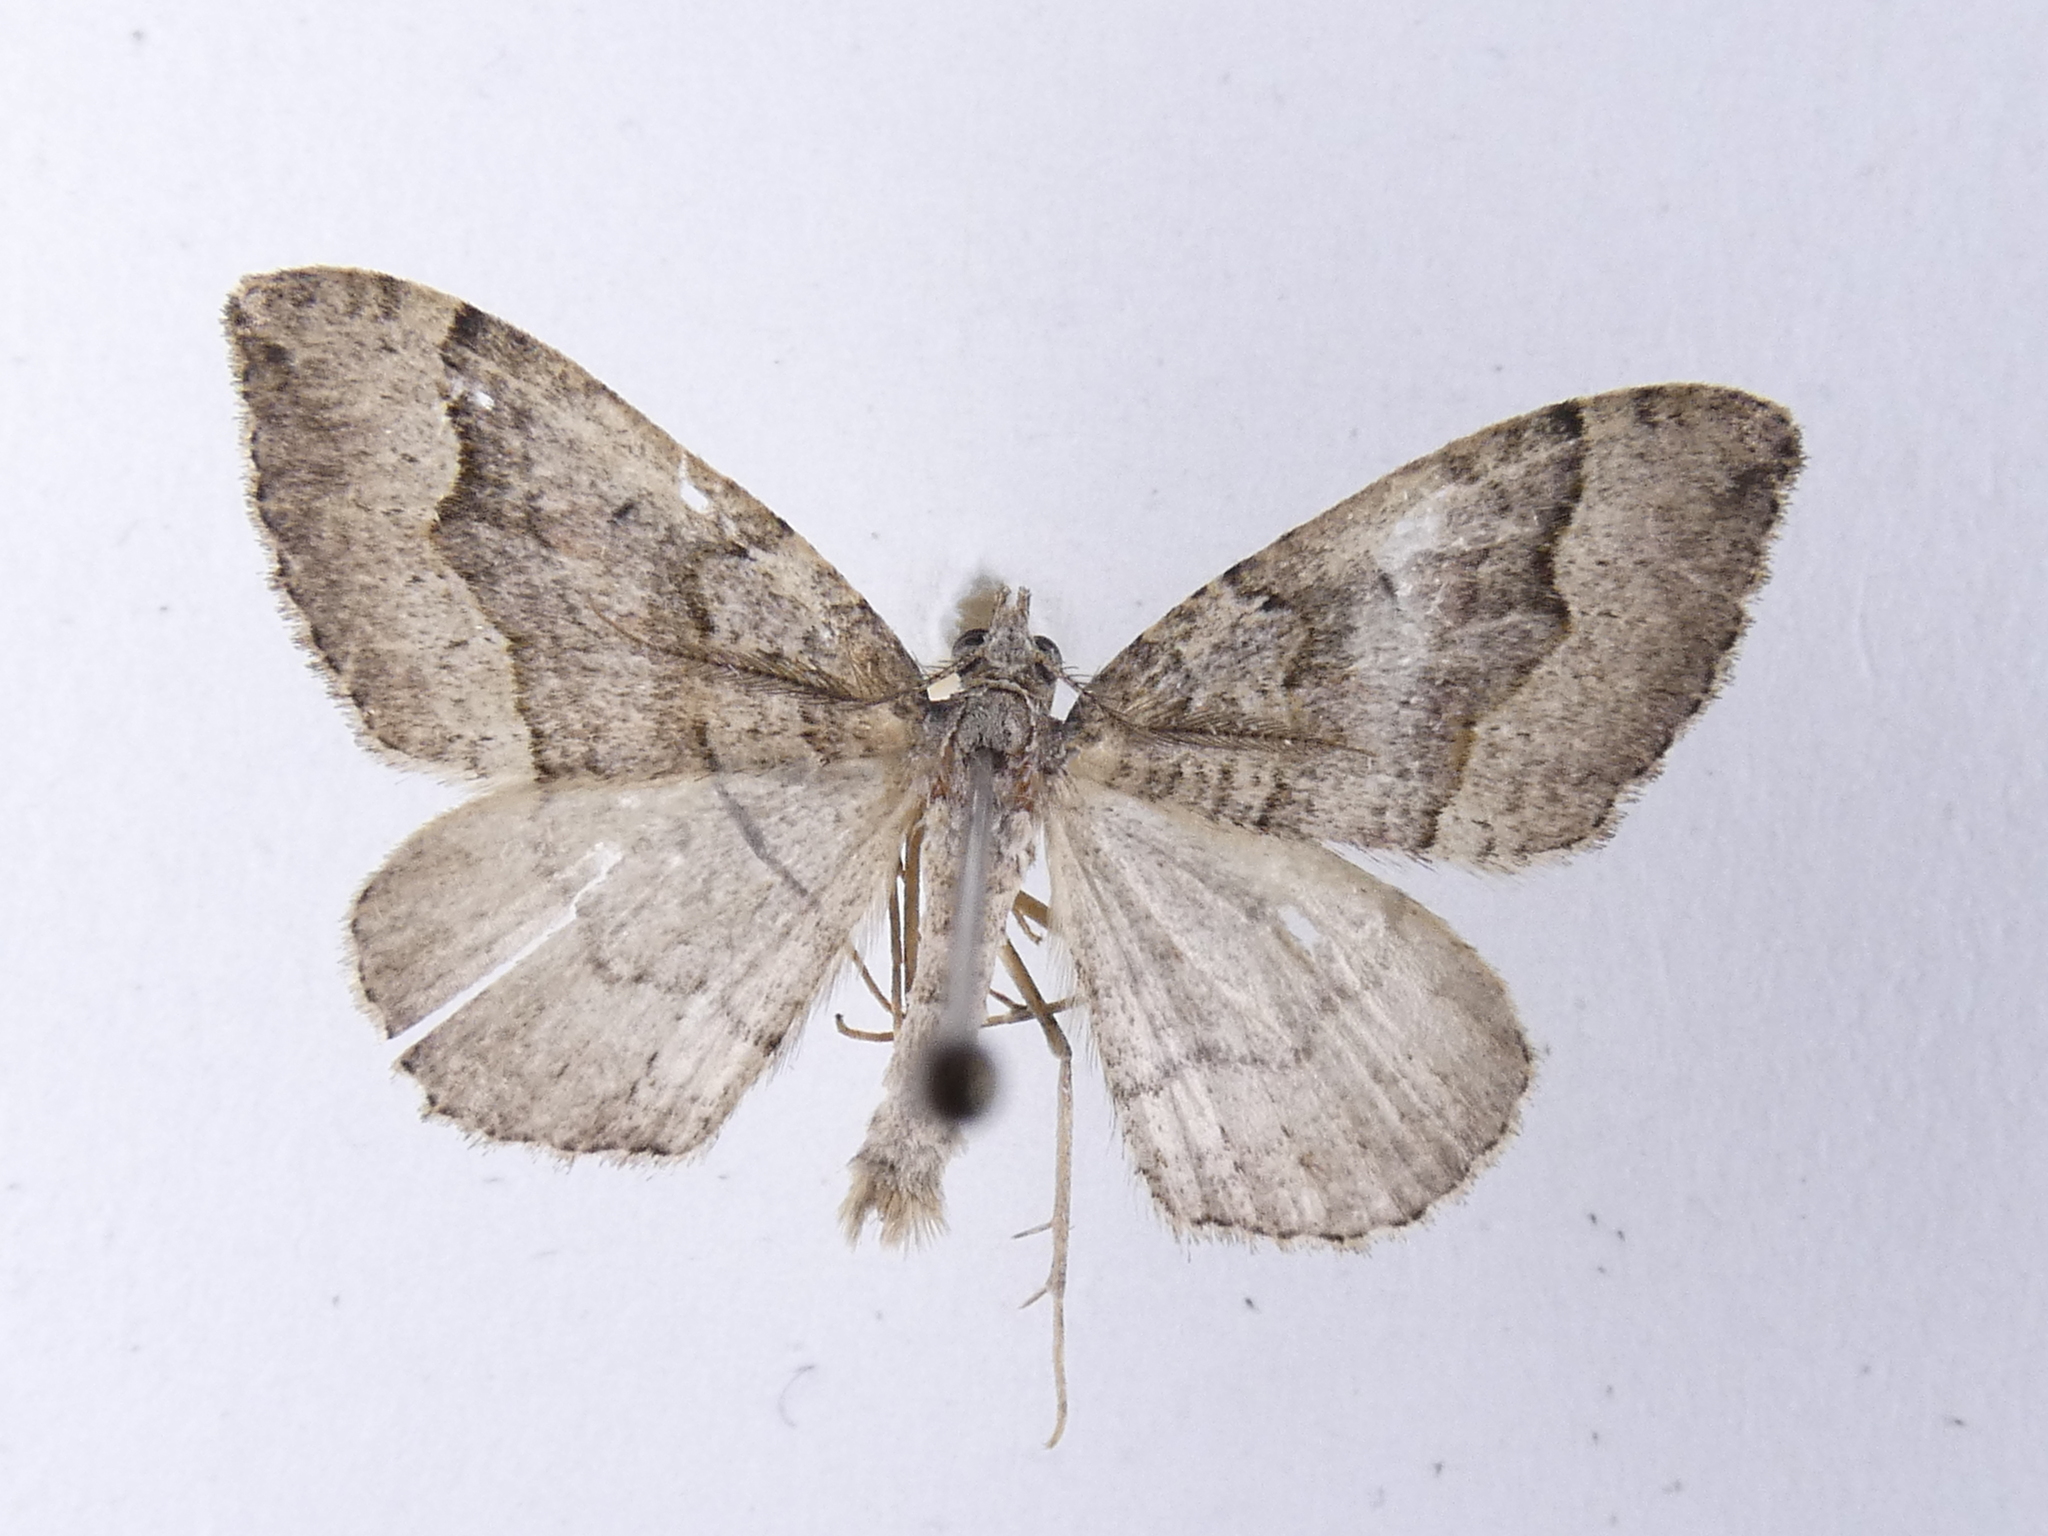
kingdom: Animalia
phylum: Arthropoda
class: Insecta
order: Lepidoptera
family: Geometridae
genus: Epyaxa
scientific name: Epyaxa rosearia
